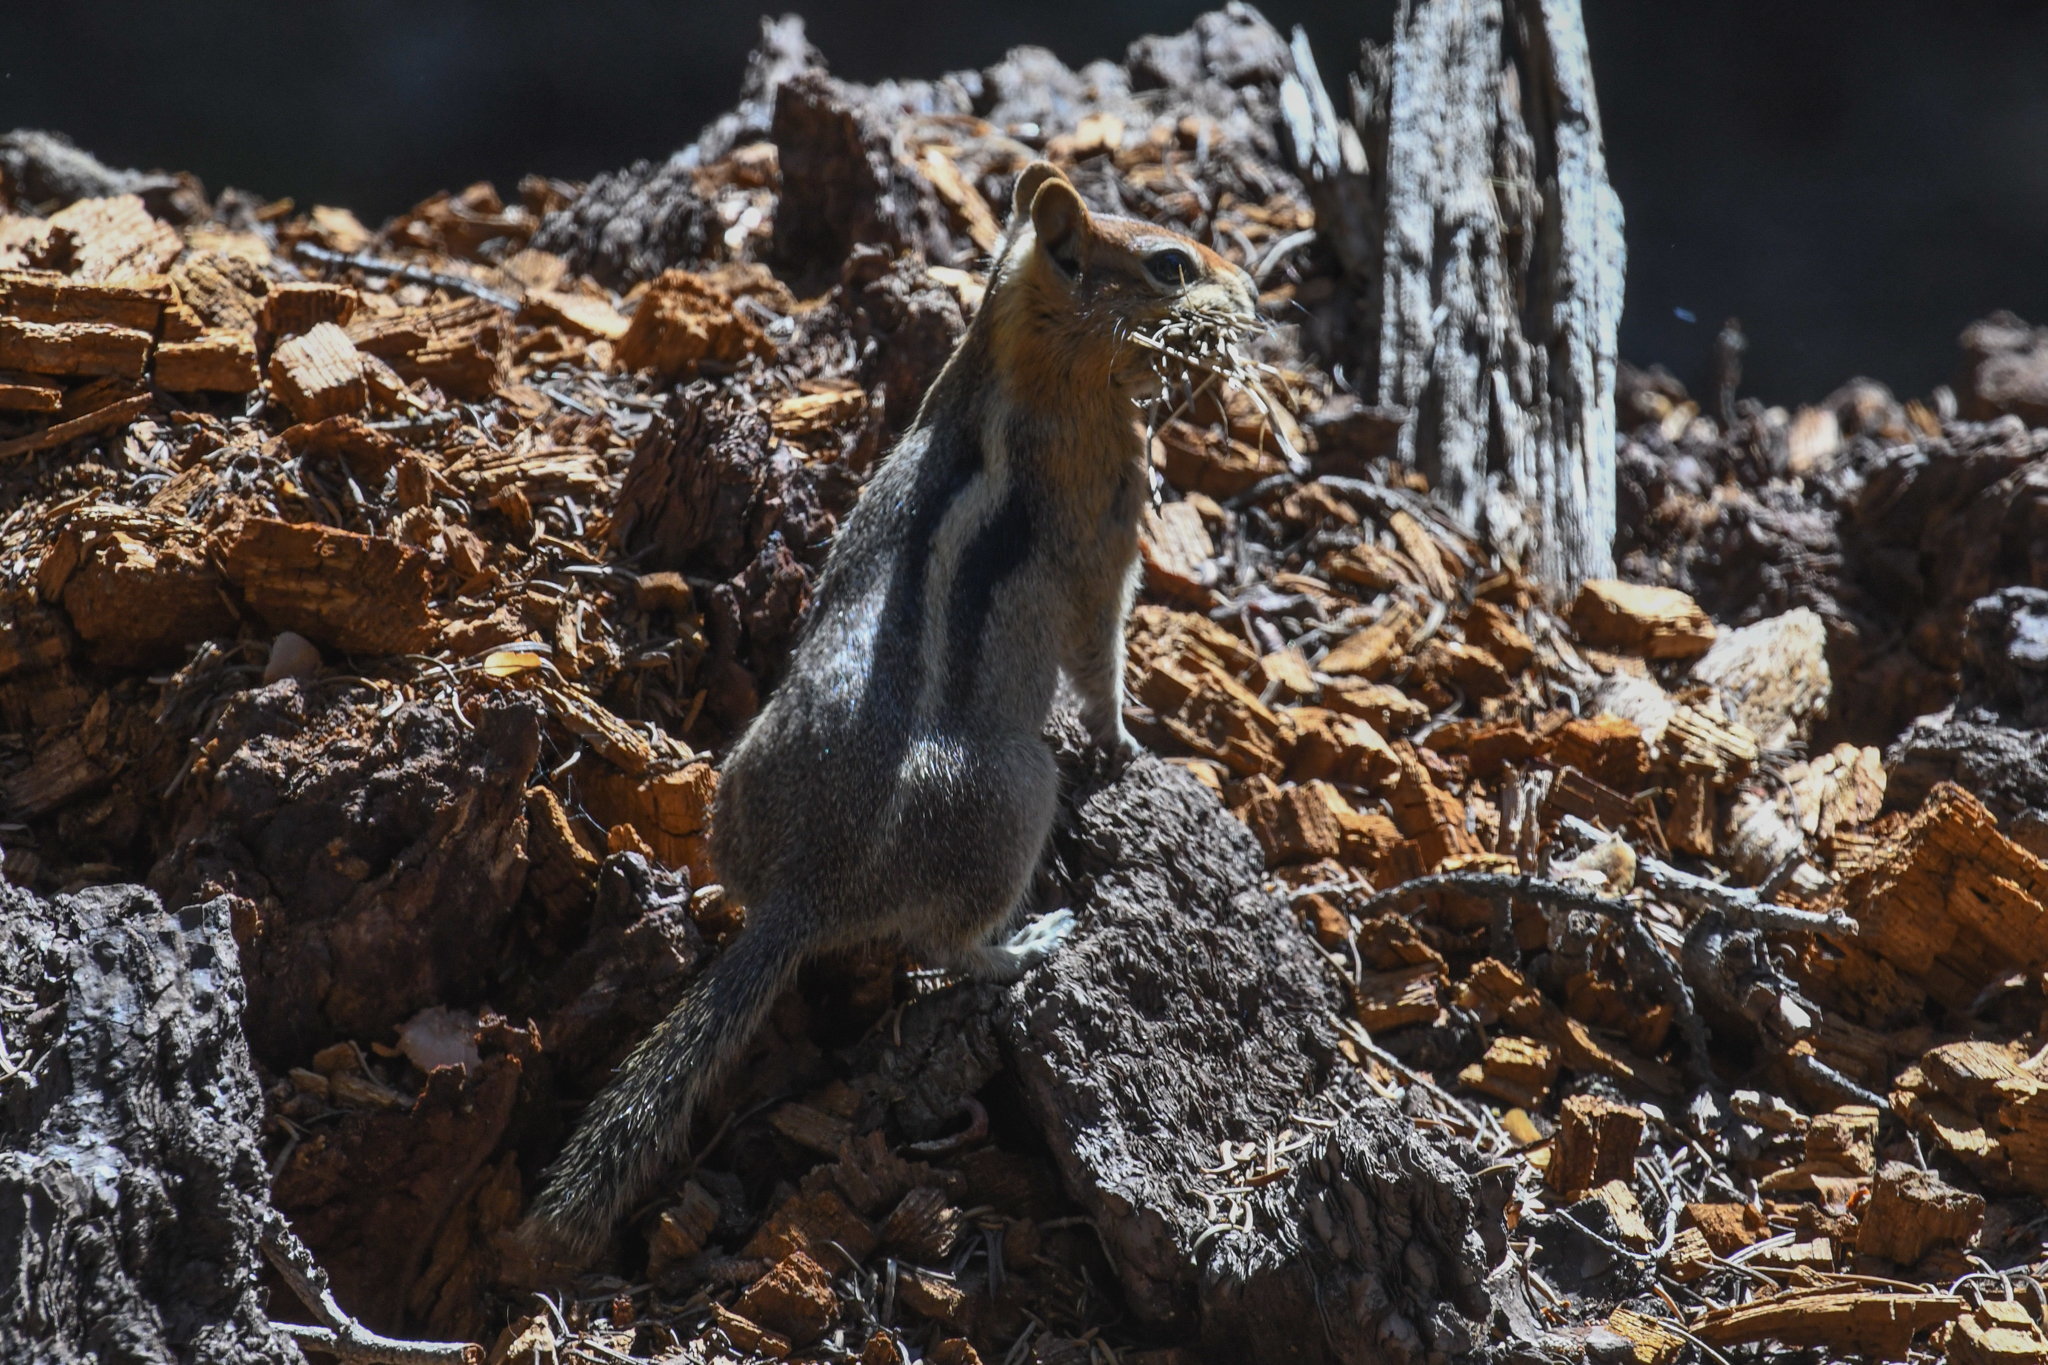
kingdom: Animalia
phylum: Chordata
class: Mammalia
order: Rodentia
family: Sciuridae
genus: Callospermophilus
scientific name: Callospermophilus lateralis
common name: Golden-mantled ground squirrel
